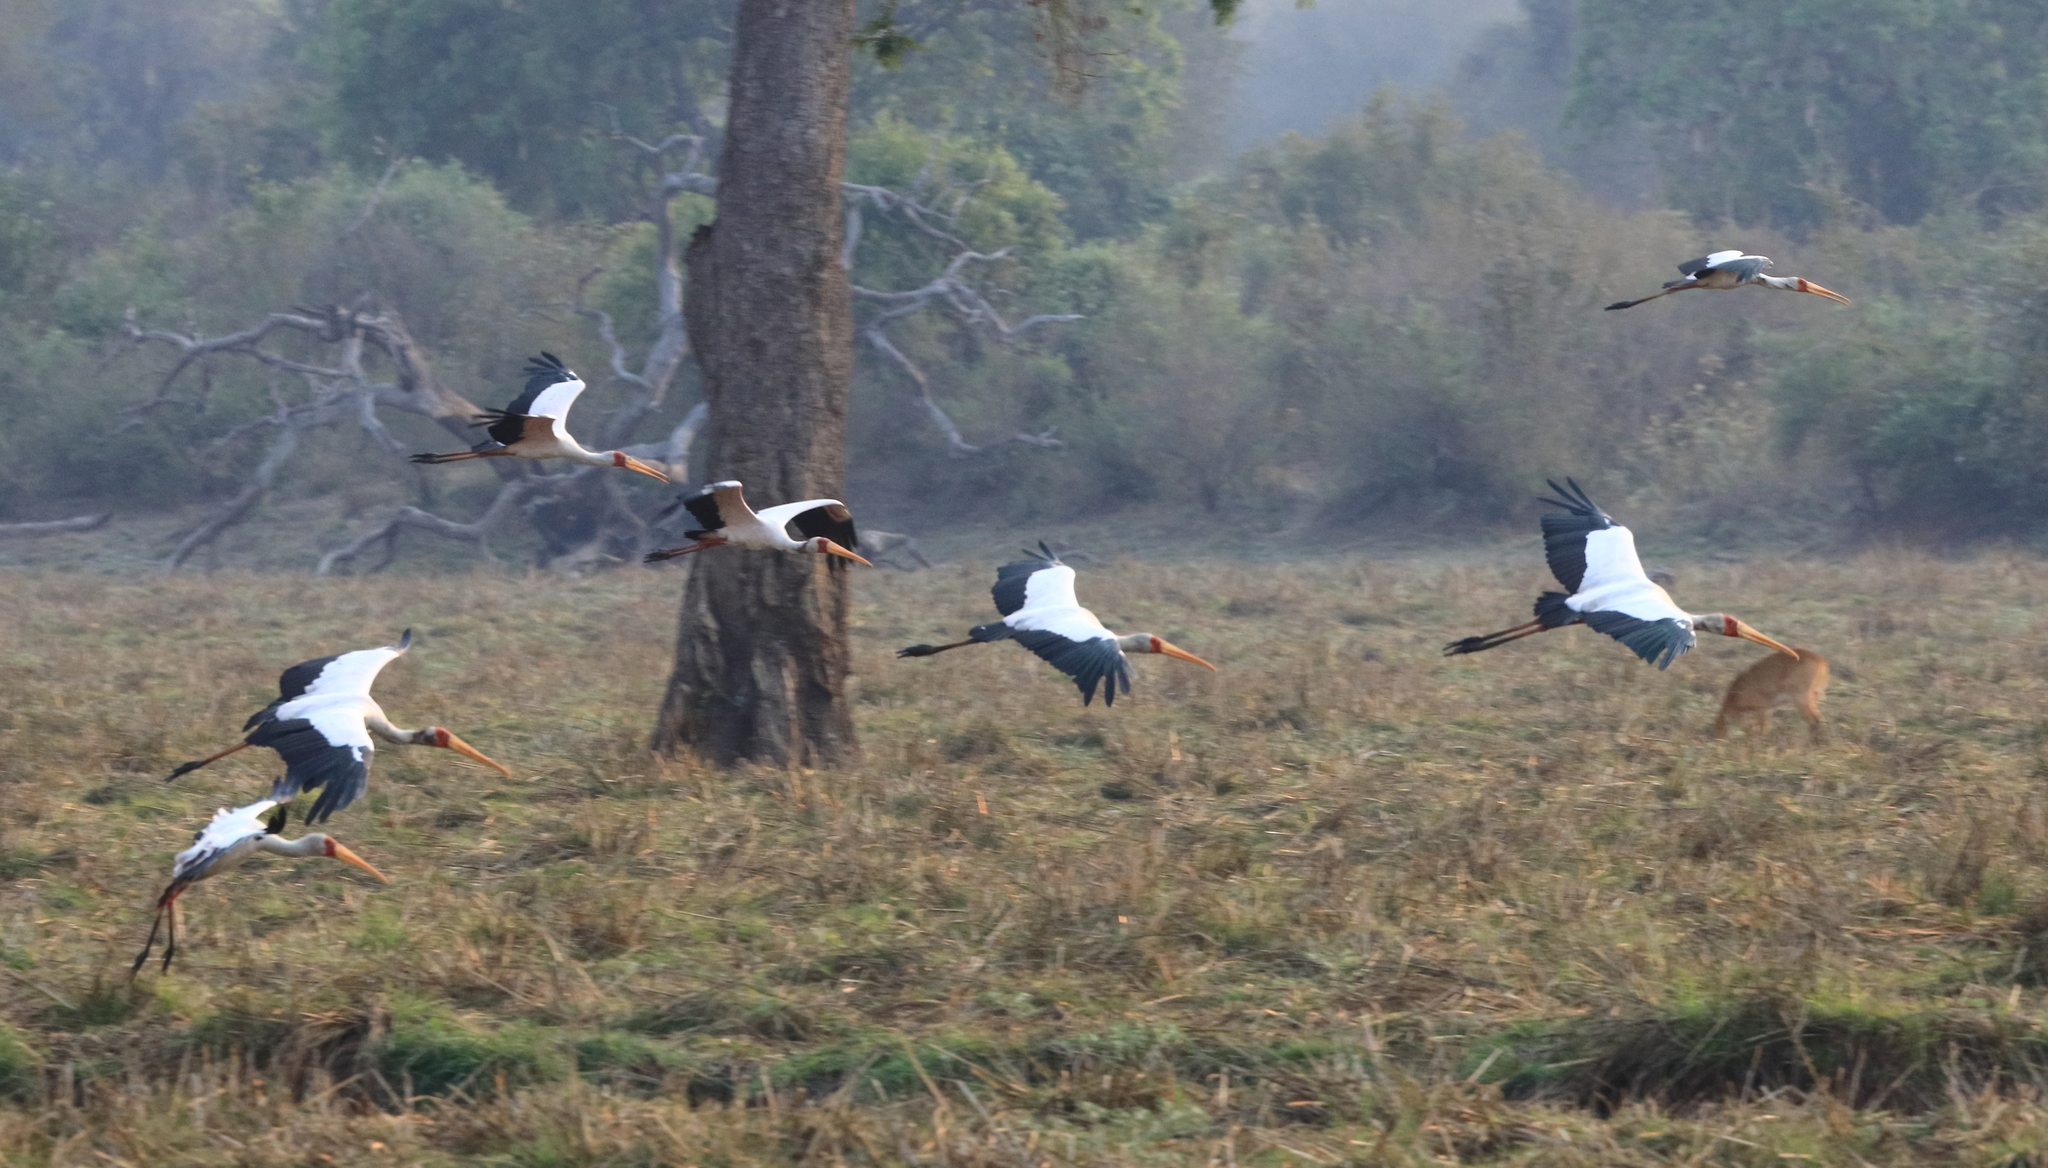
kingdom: Animalia
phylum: Chordata
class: Aves
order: Ciconiiformes
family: Ciconiidae
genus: Mycteria
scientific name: Mycteria ibis
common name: Yellow-billed stork
